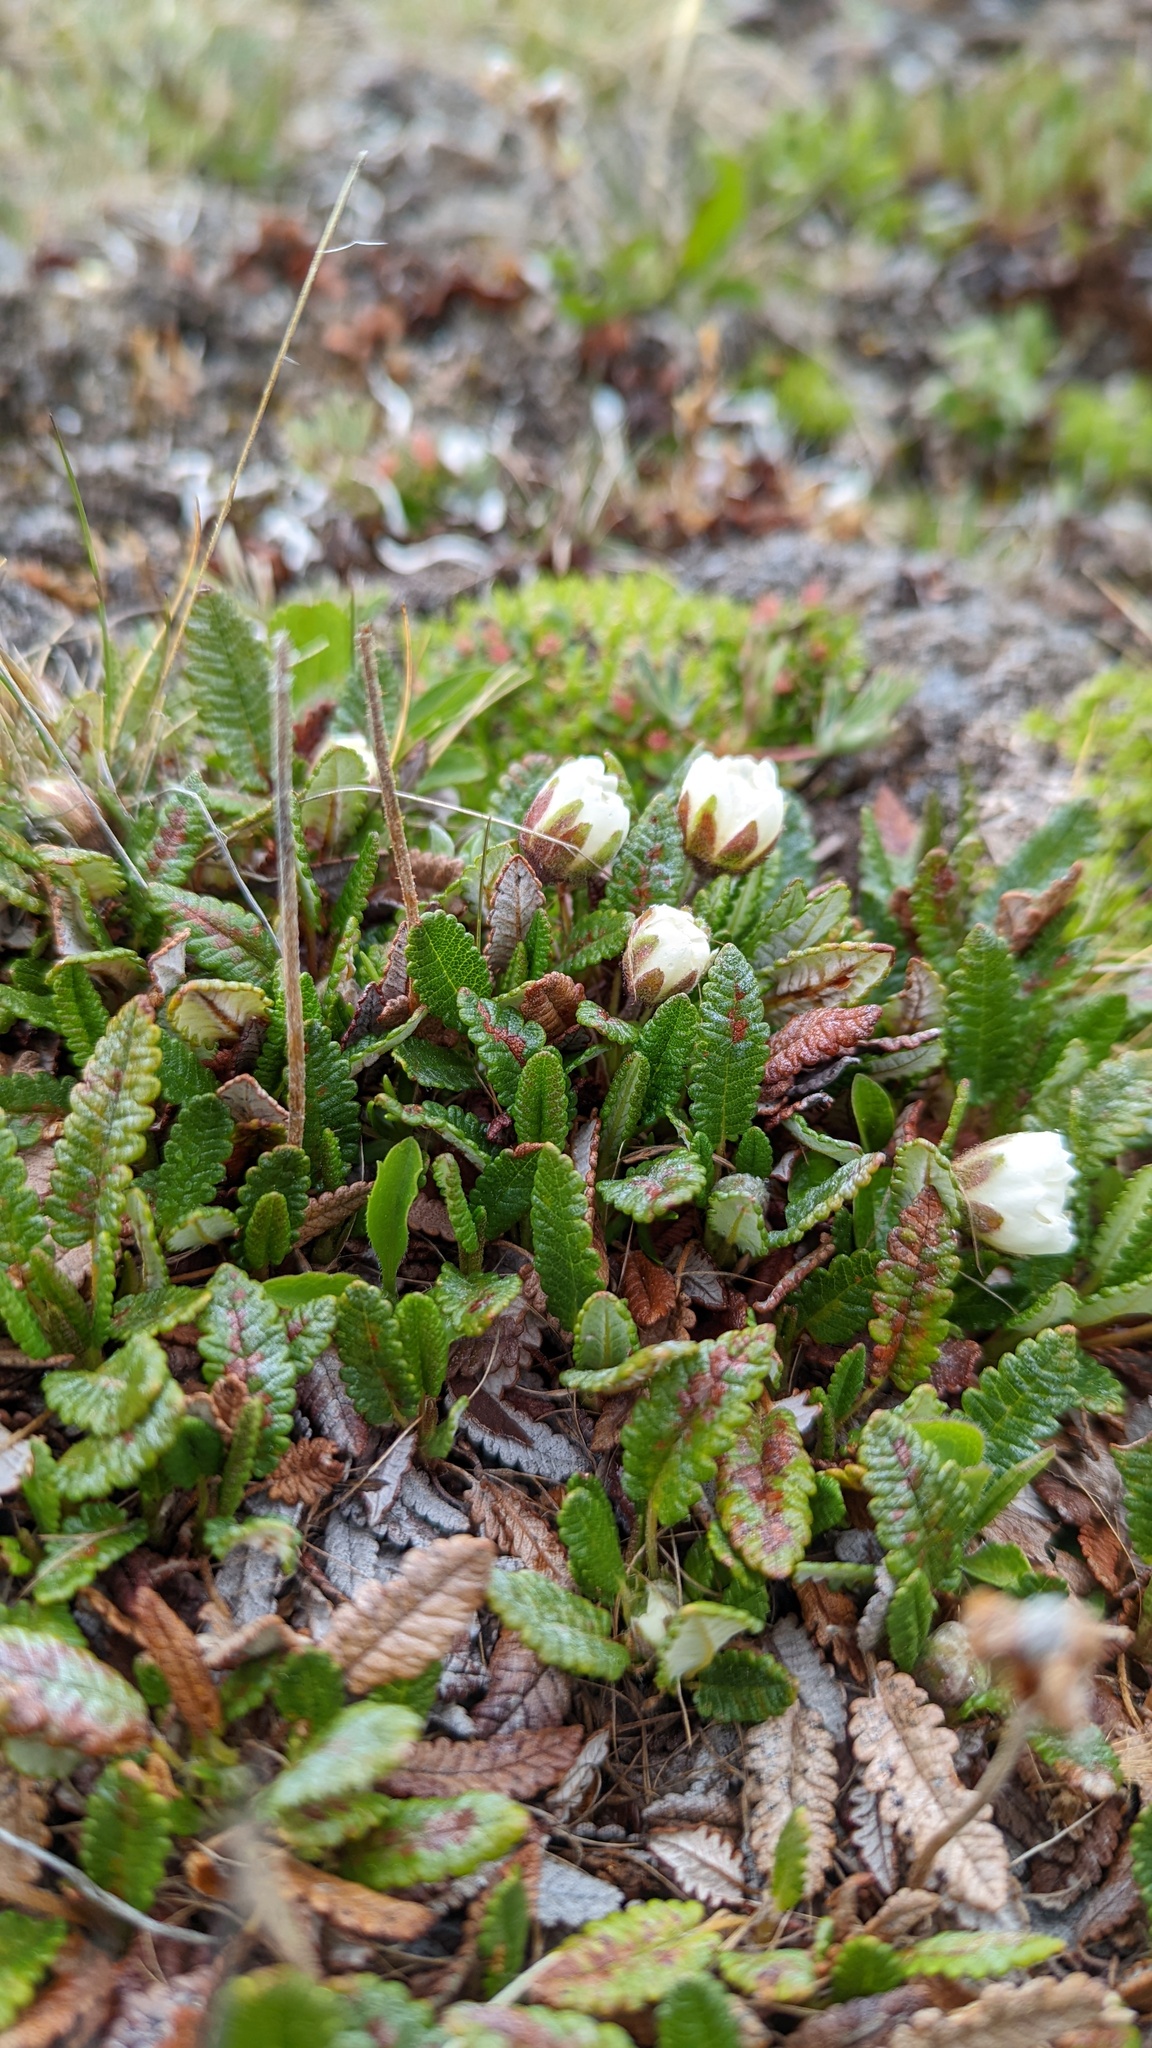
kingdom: Plantae
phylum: Tracheophyta
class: Magnoliopsida
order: Rosales
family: Rosaceae
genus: Dryas
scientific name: Dryas octopetala
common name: Eight-petal mountain-avens
